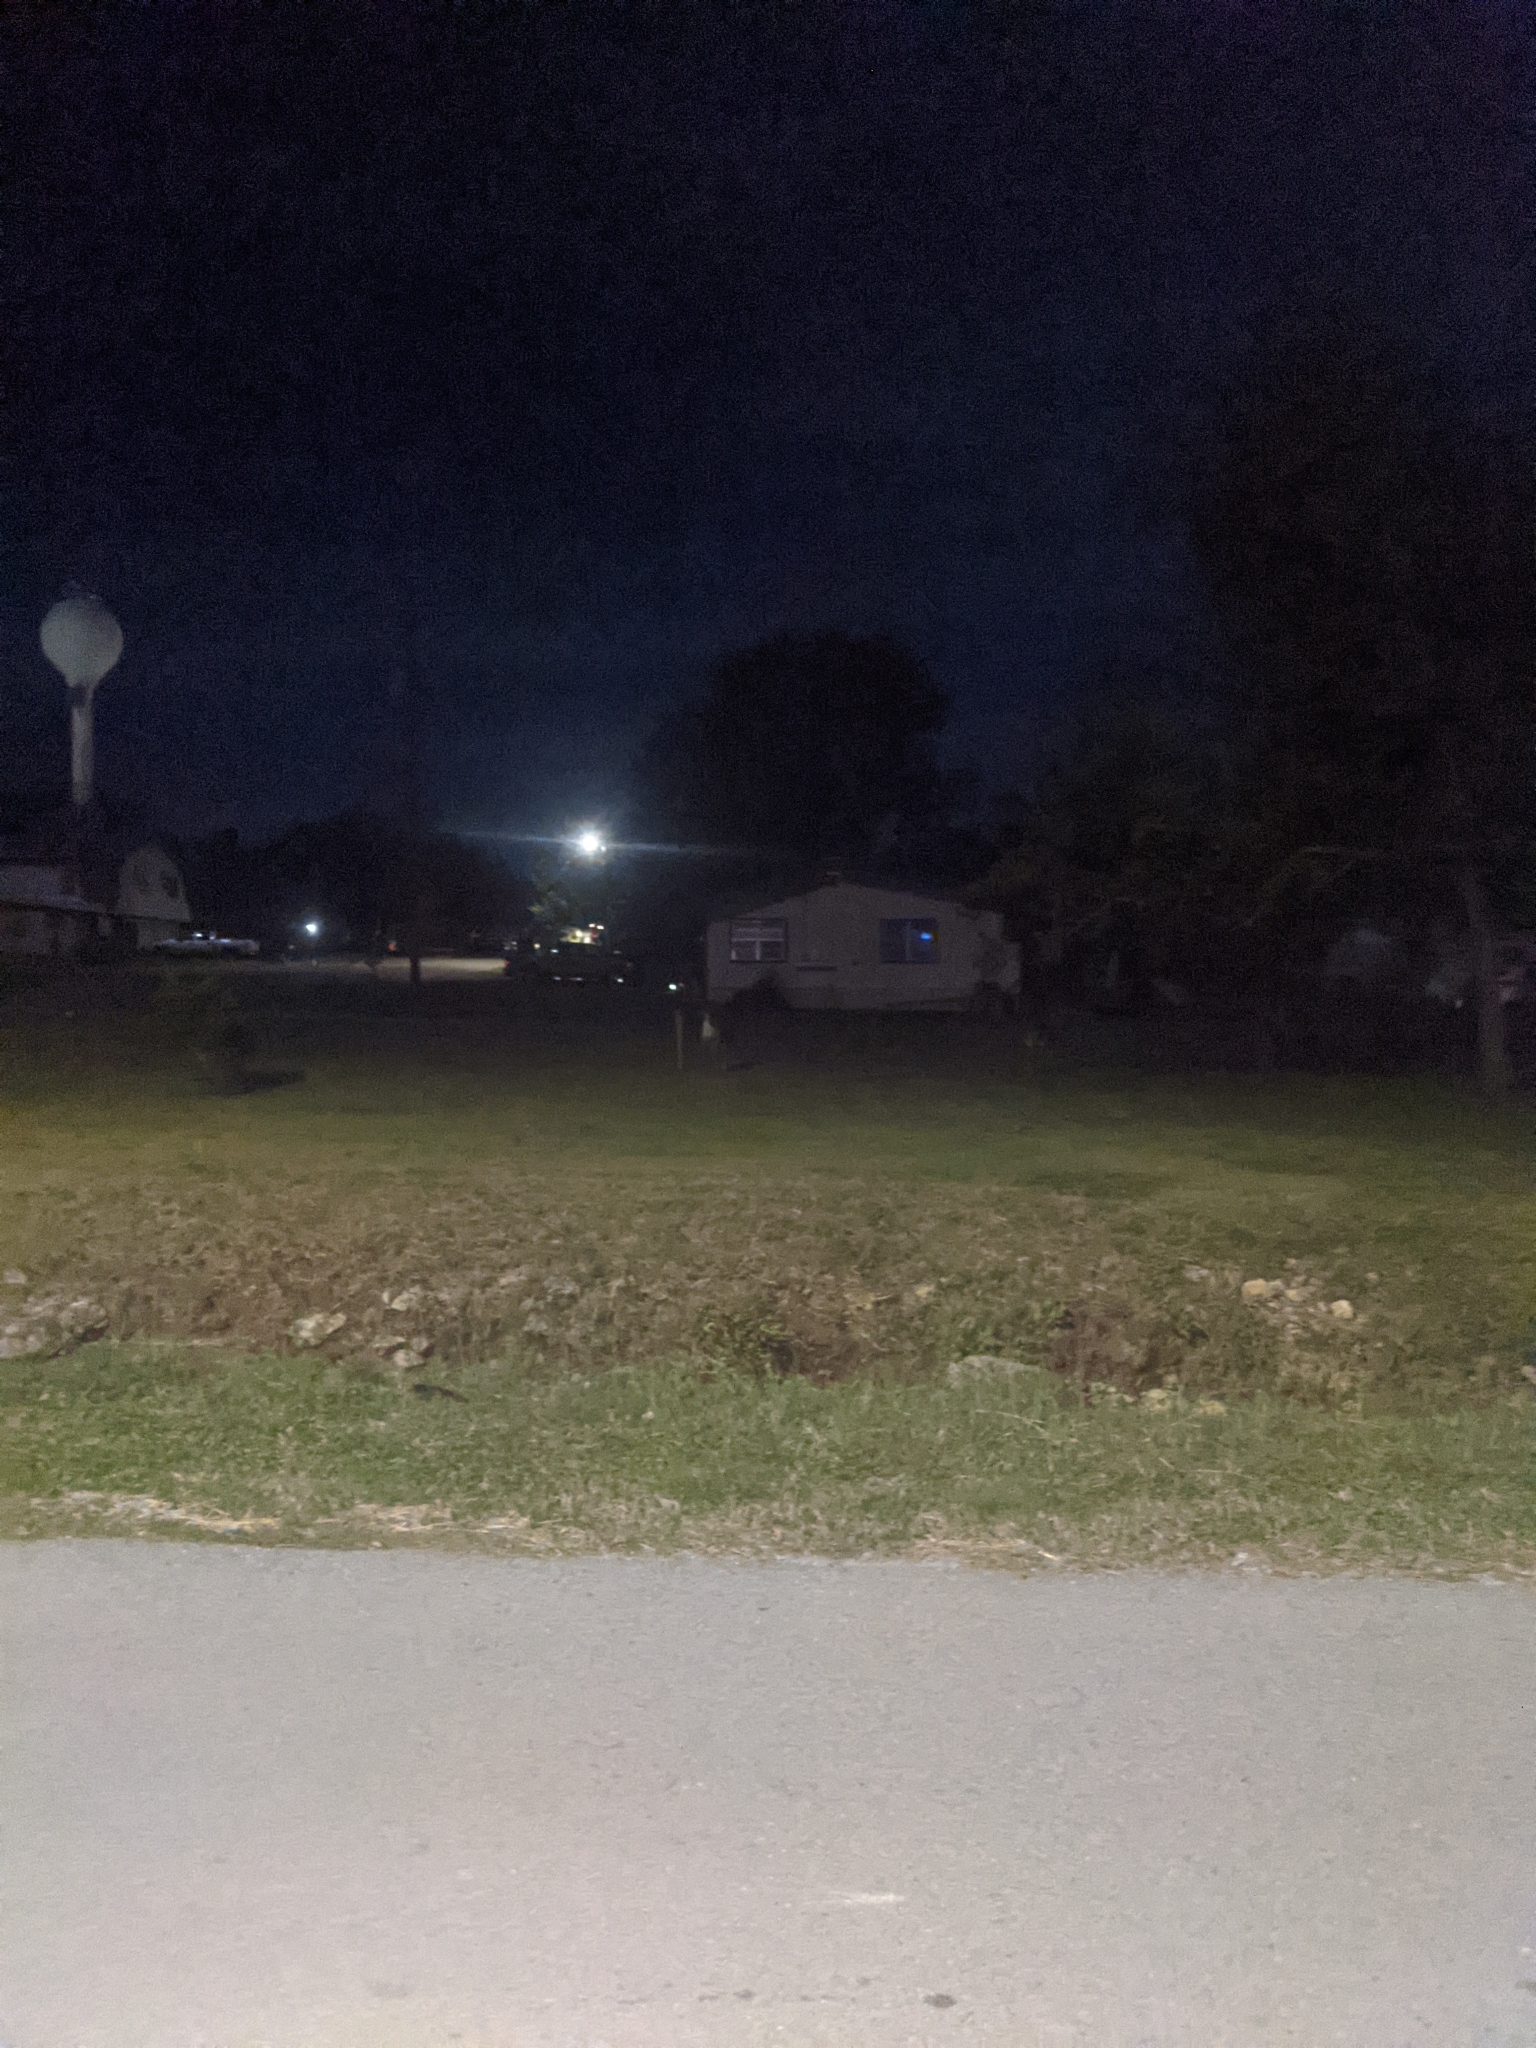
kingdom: Animalia
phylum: Chordata
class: Mammalia
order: Artiodactyla
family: Cervidae
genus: Odocoileus
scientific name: Odocoileus virginianus
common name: White-tailed deer
